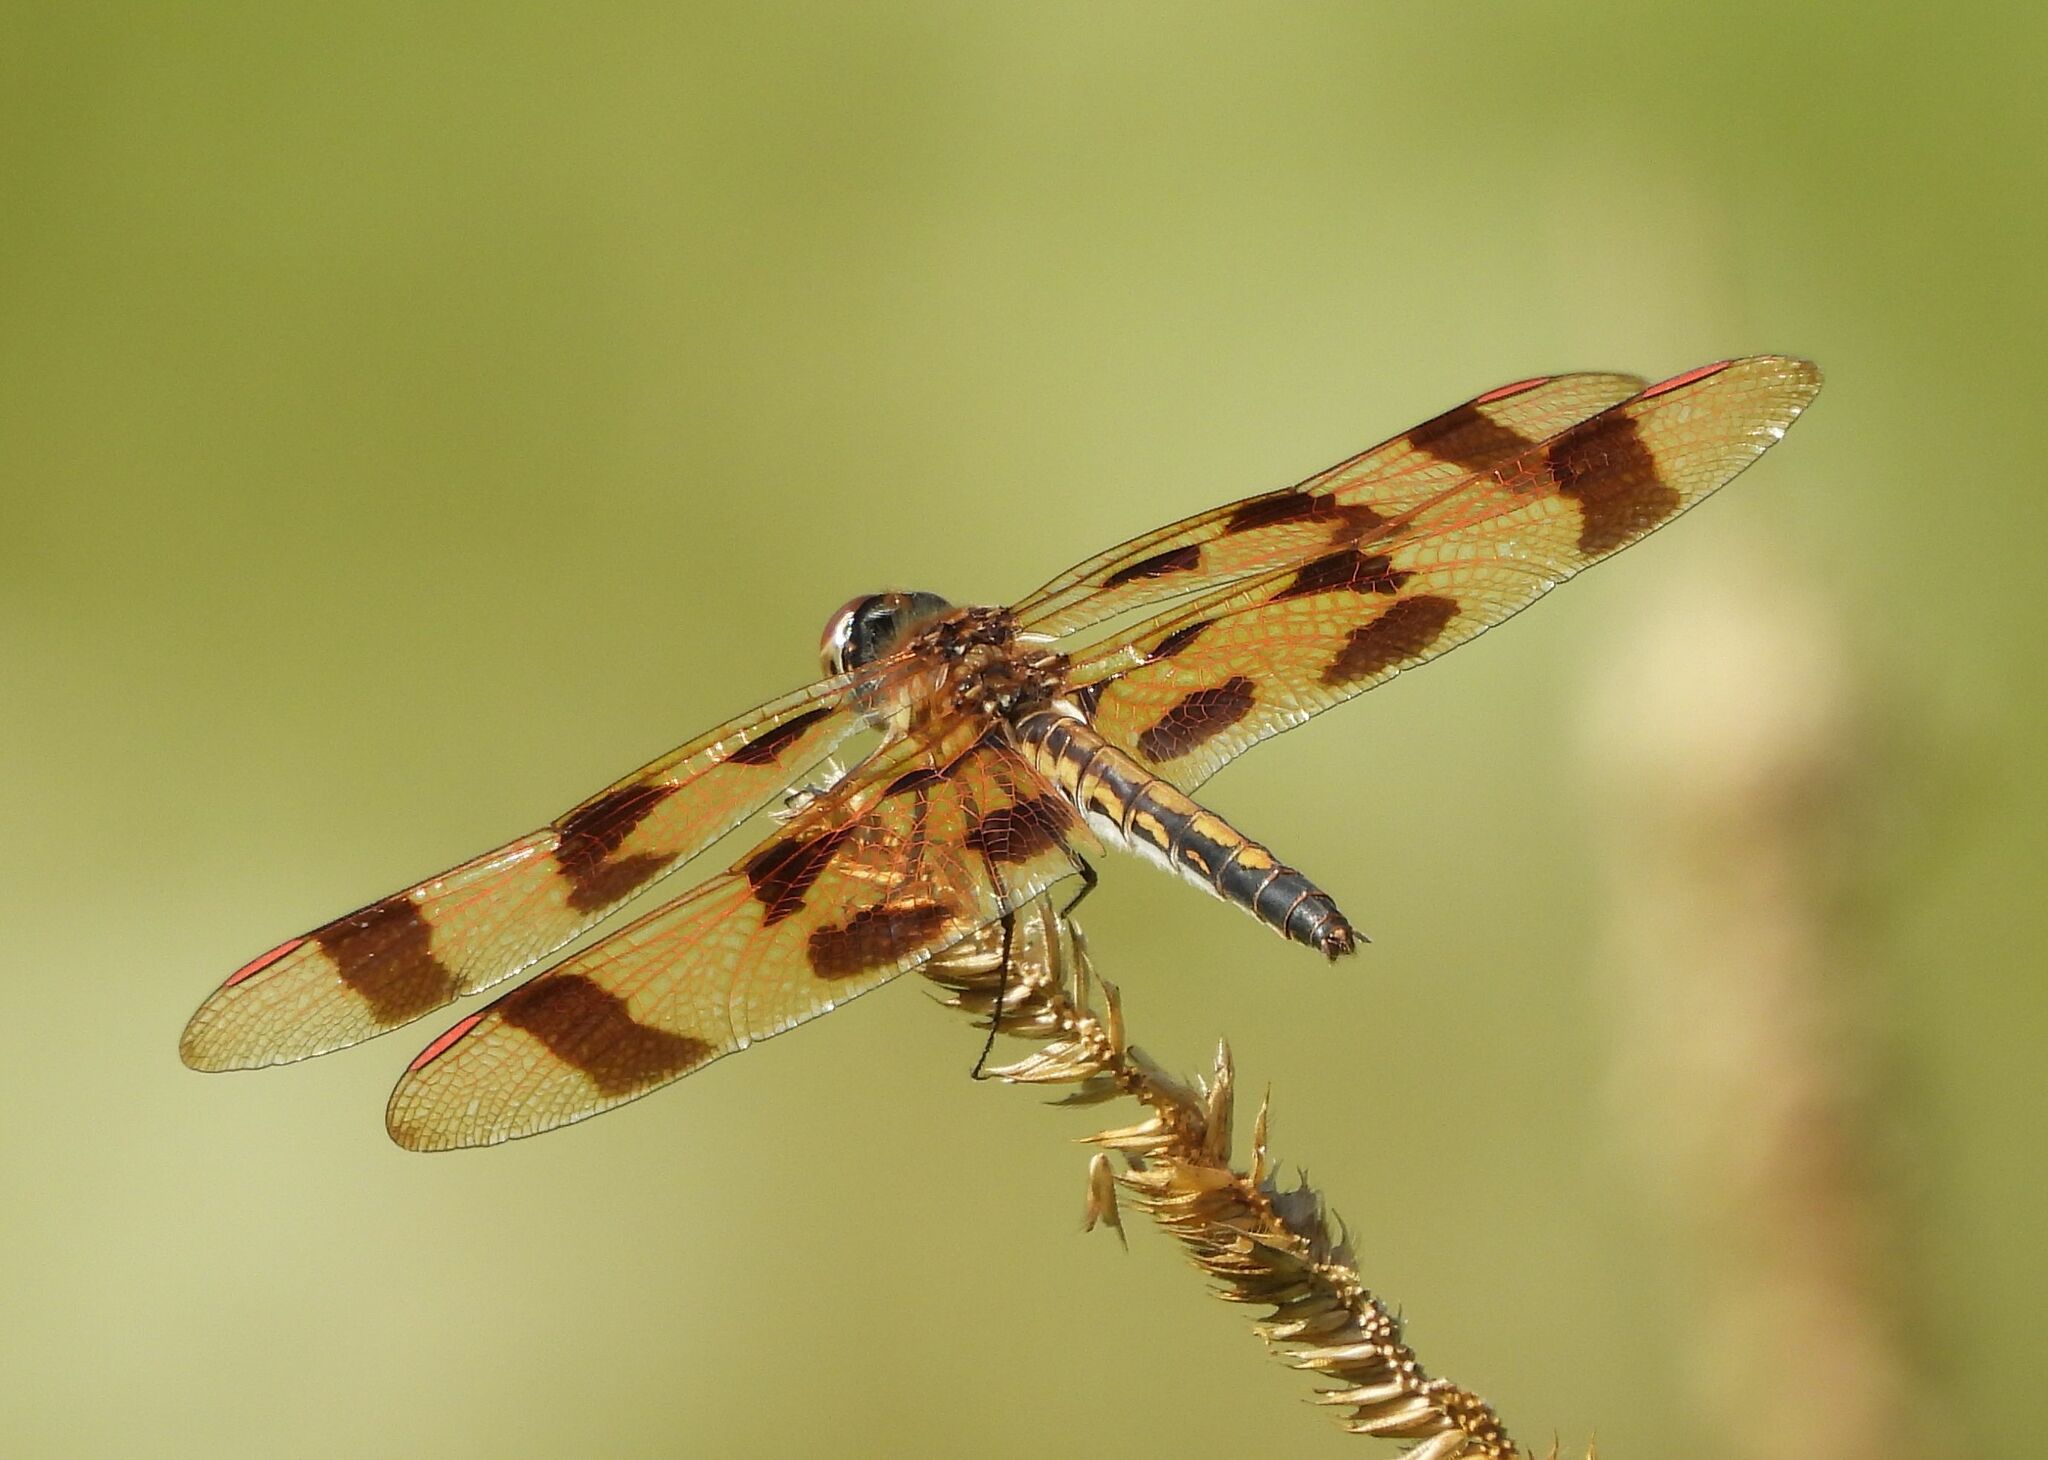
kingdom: Animalia
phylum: Arthropoda
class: Insecta
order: Odonata
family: Libellulidae
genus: Celithemis
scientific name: Celithemis eponina
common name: Halloween pennant
